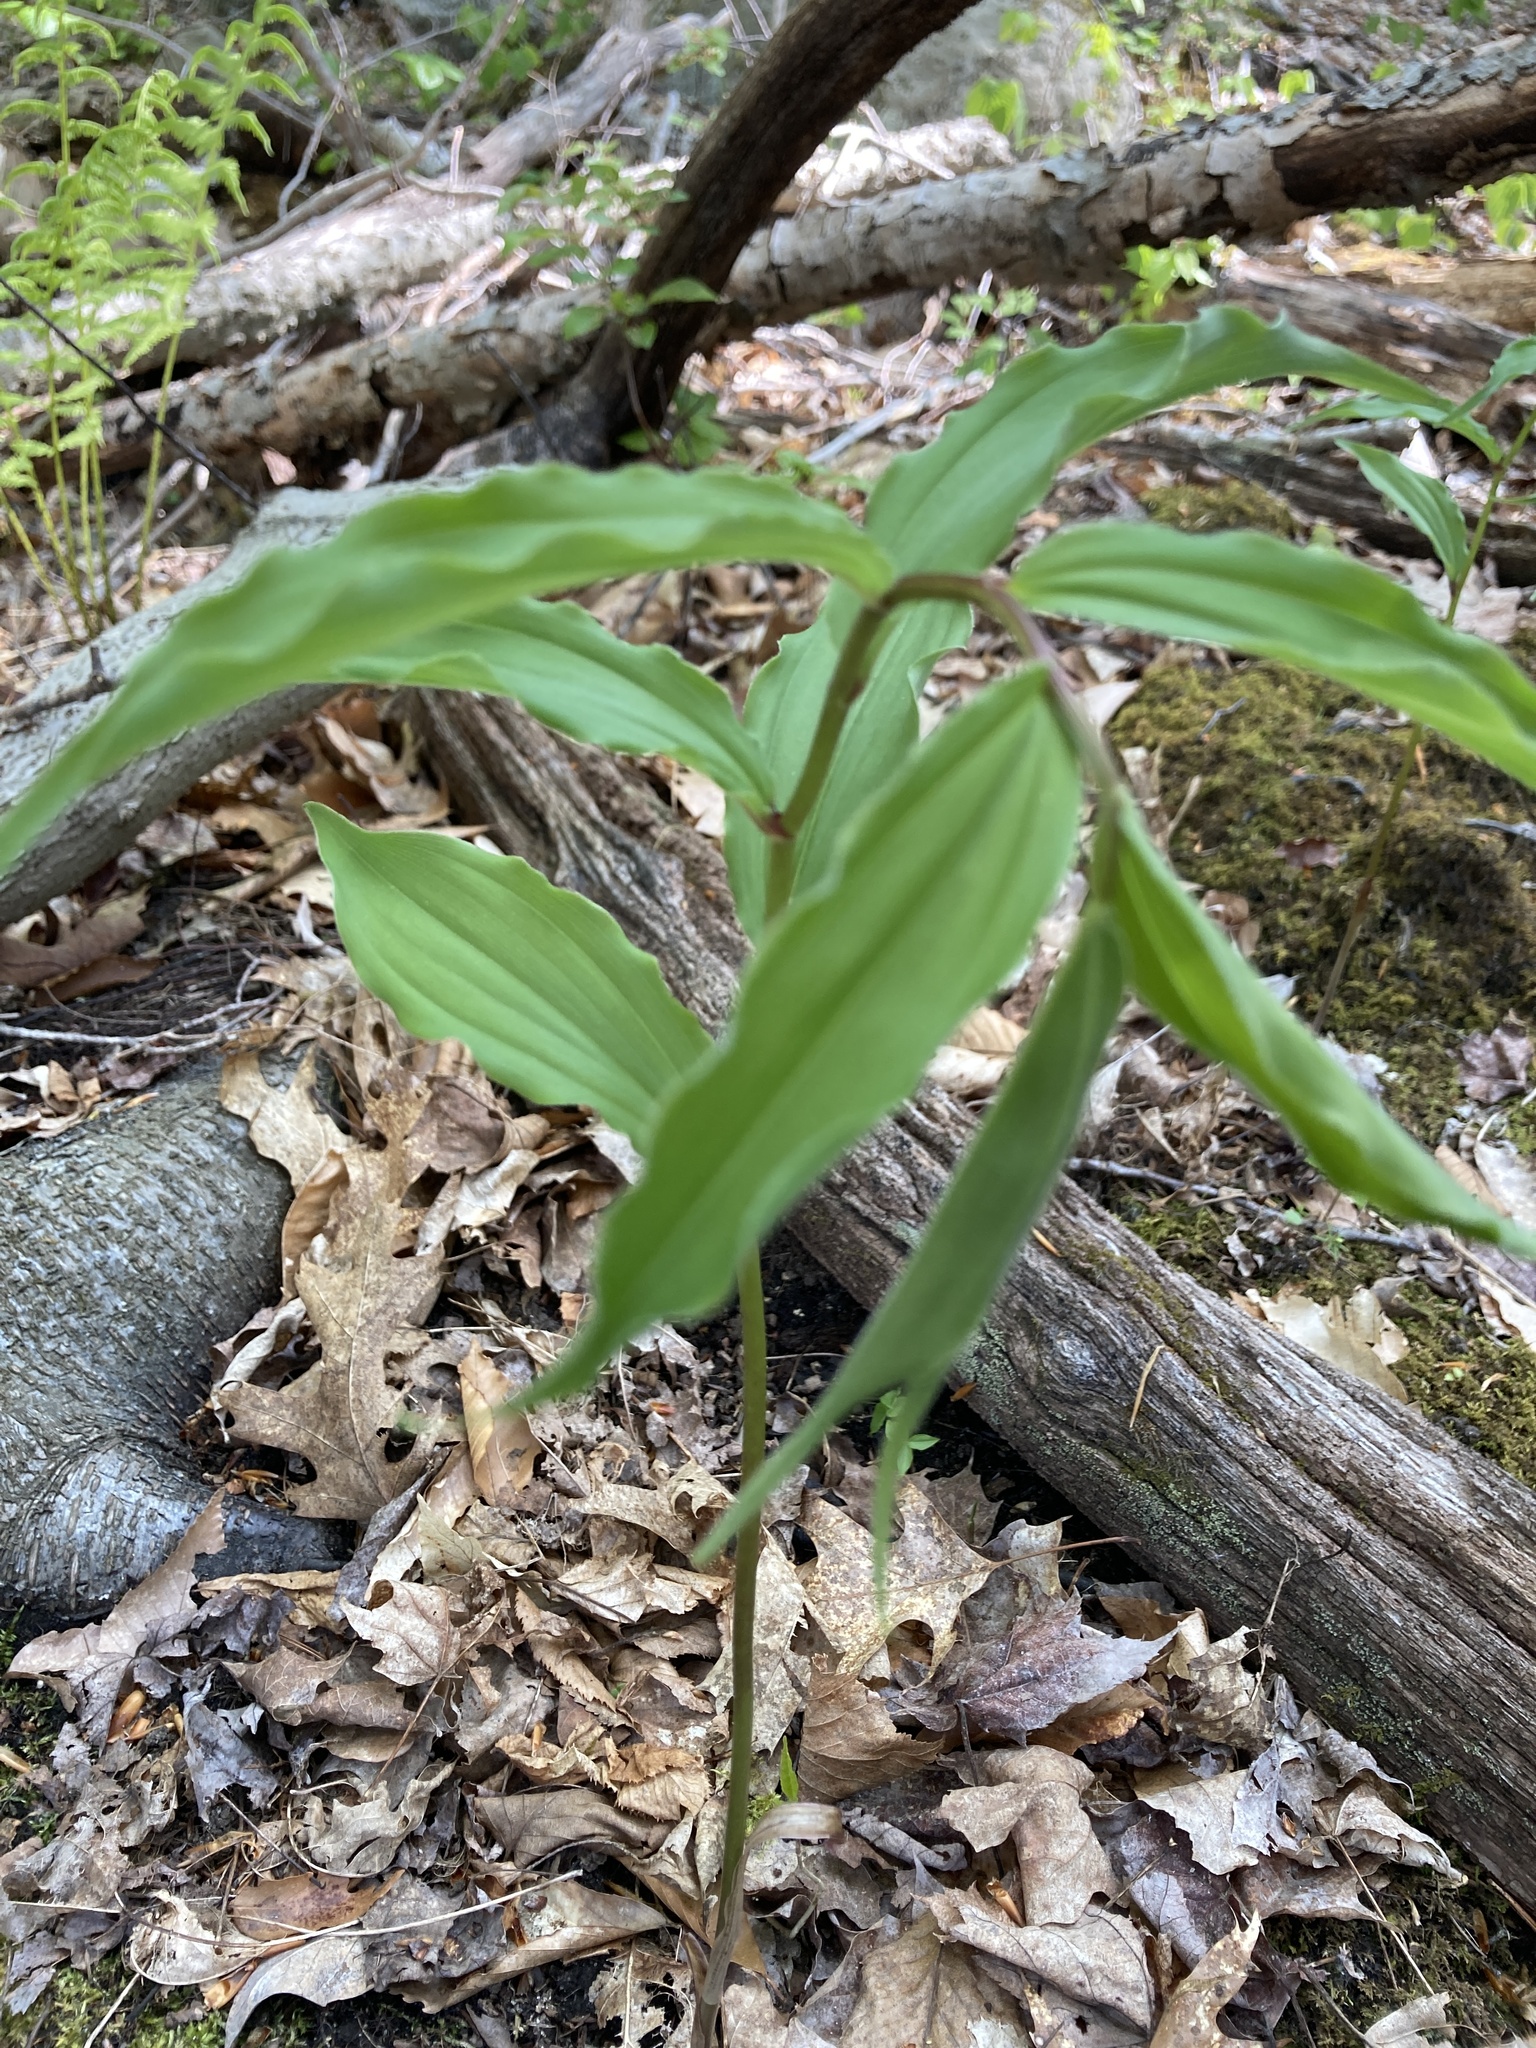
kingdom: Plantae
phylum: Tracheophyta
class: Liliopsida
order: Asparagales
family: Asparagaceae
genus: Maianthemum
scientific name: Maianthemum racemosum
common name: False spikenard
